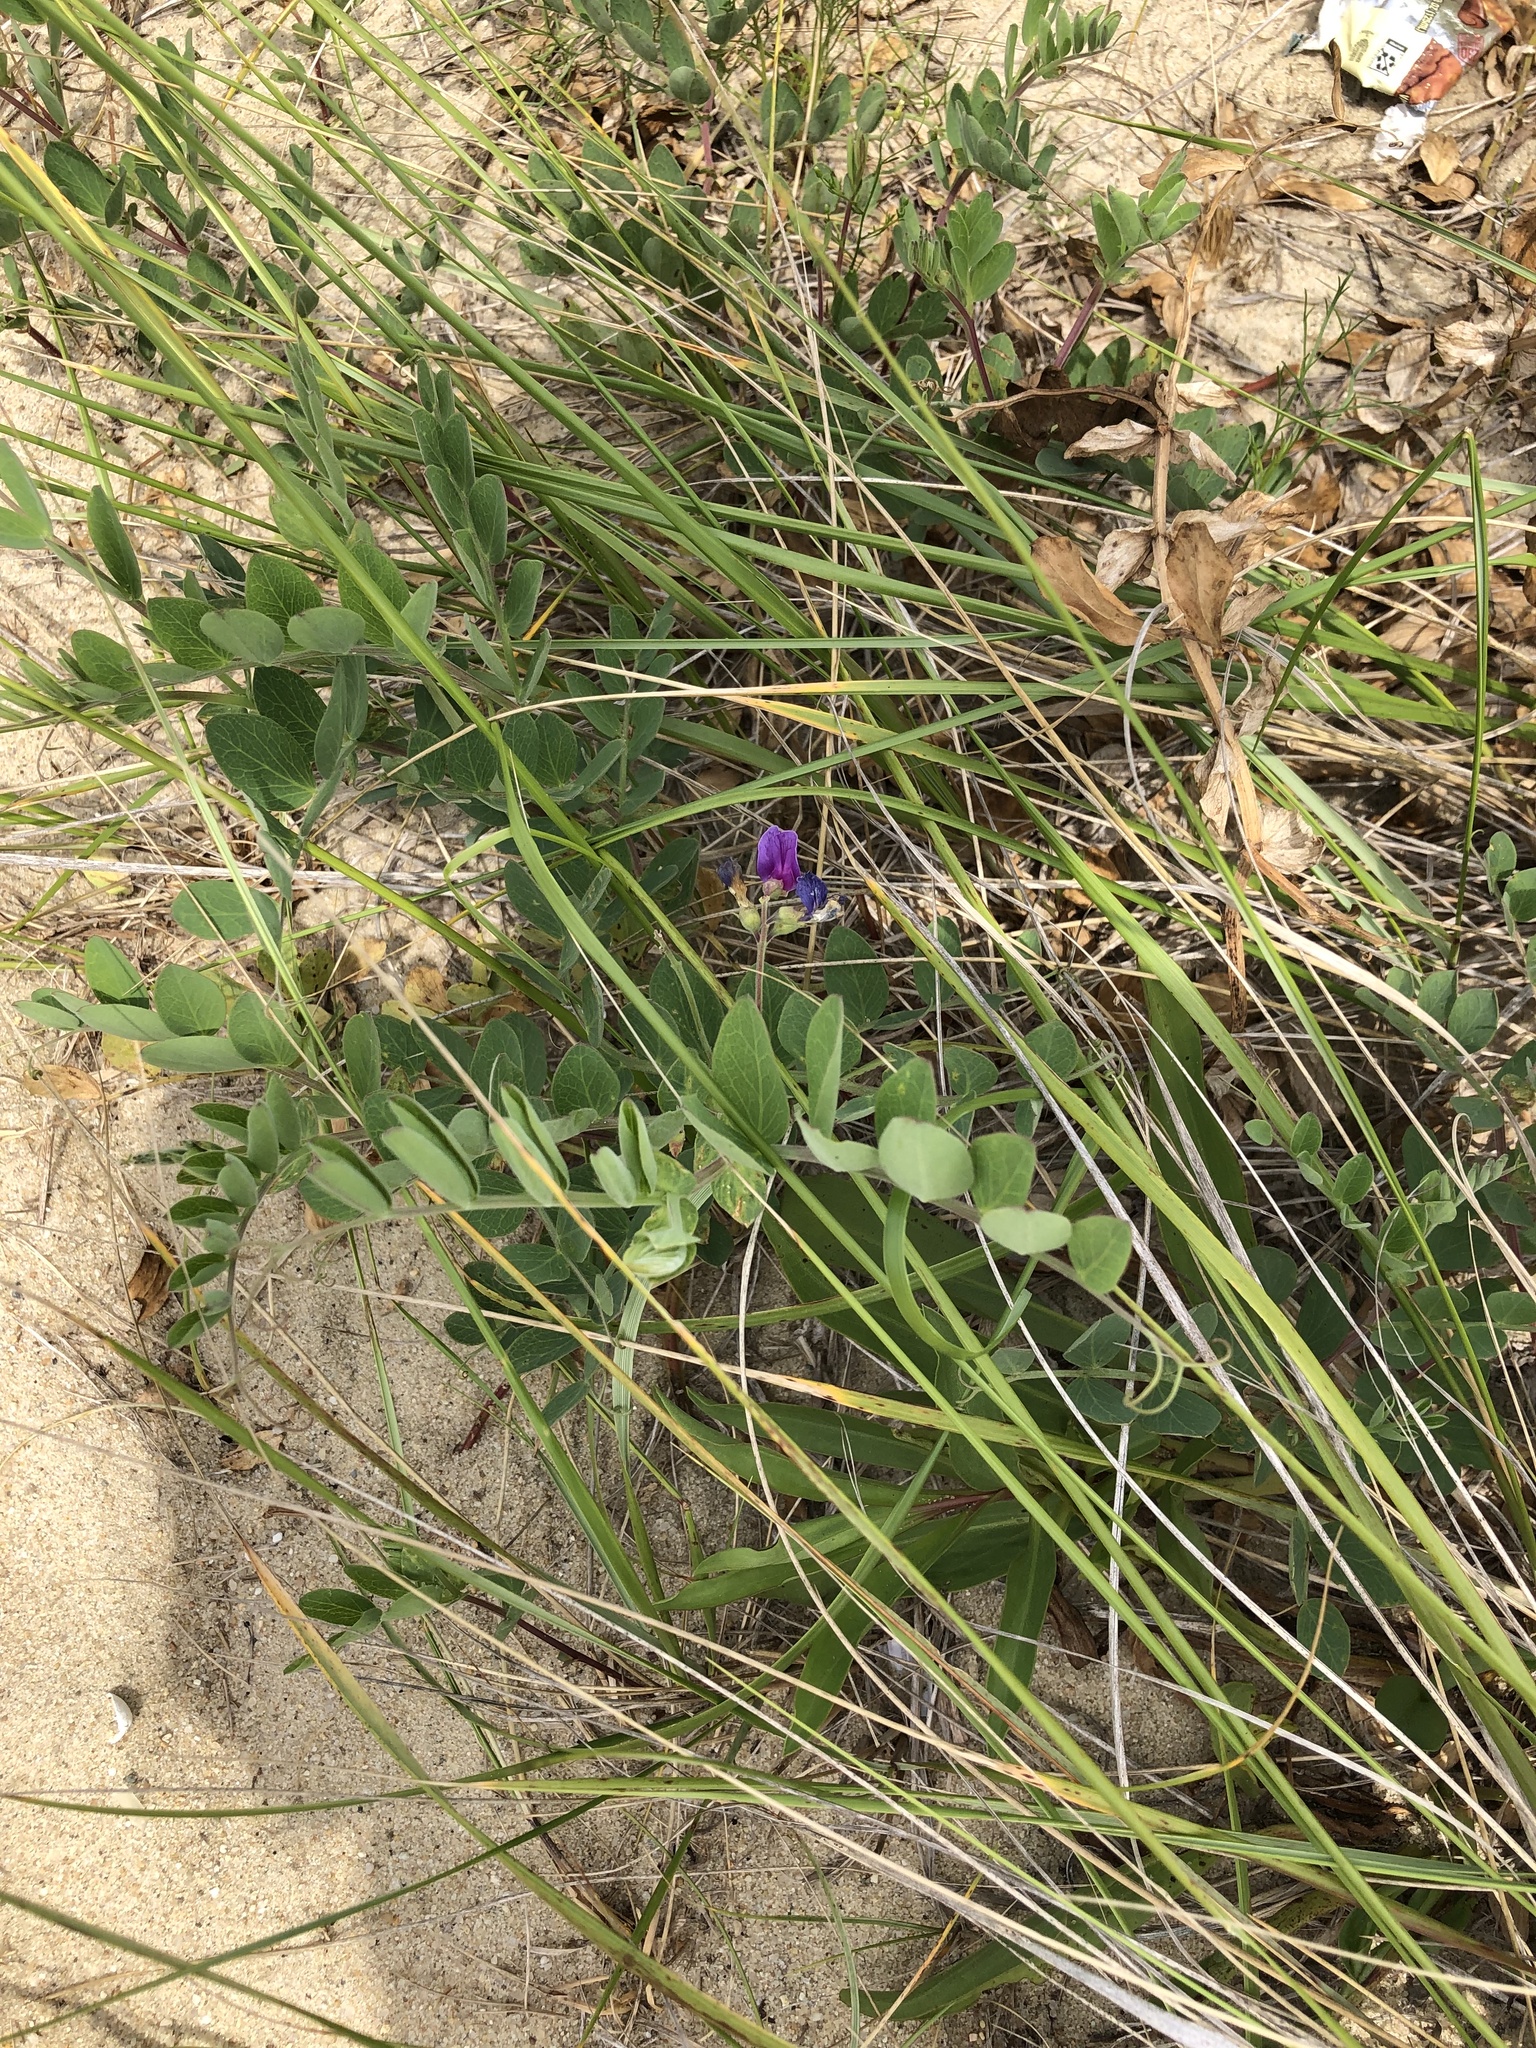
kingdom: Plantae
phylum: Tracheophyta
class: Magnoliopsida
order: Fabales
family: Fabaceae
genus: Lathyrus
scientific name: Lathyrus japonicus
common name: Sea pea
